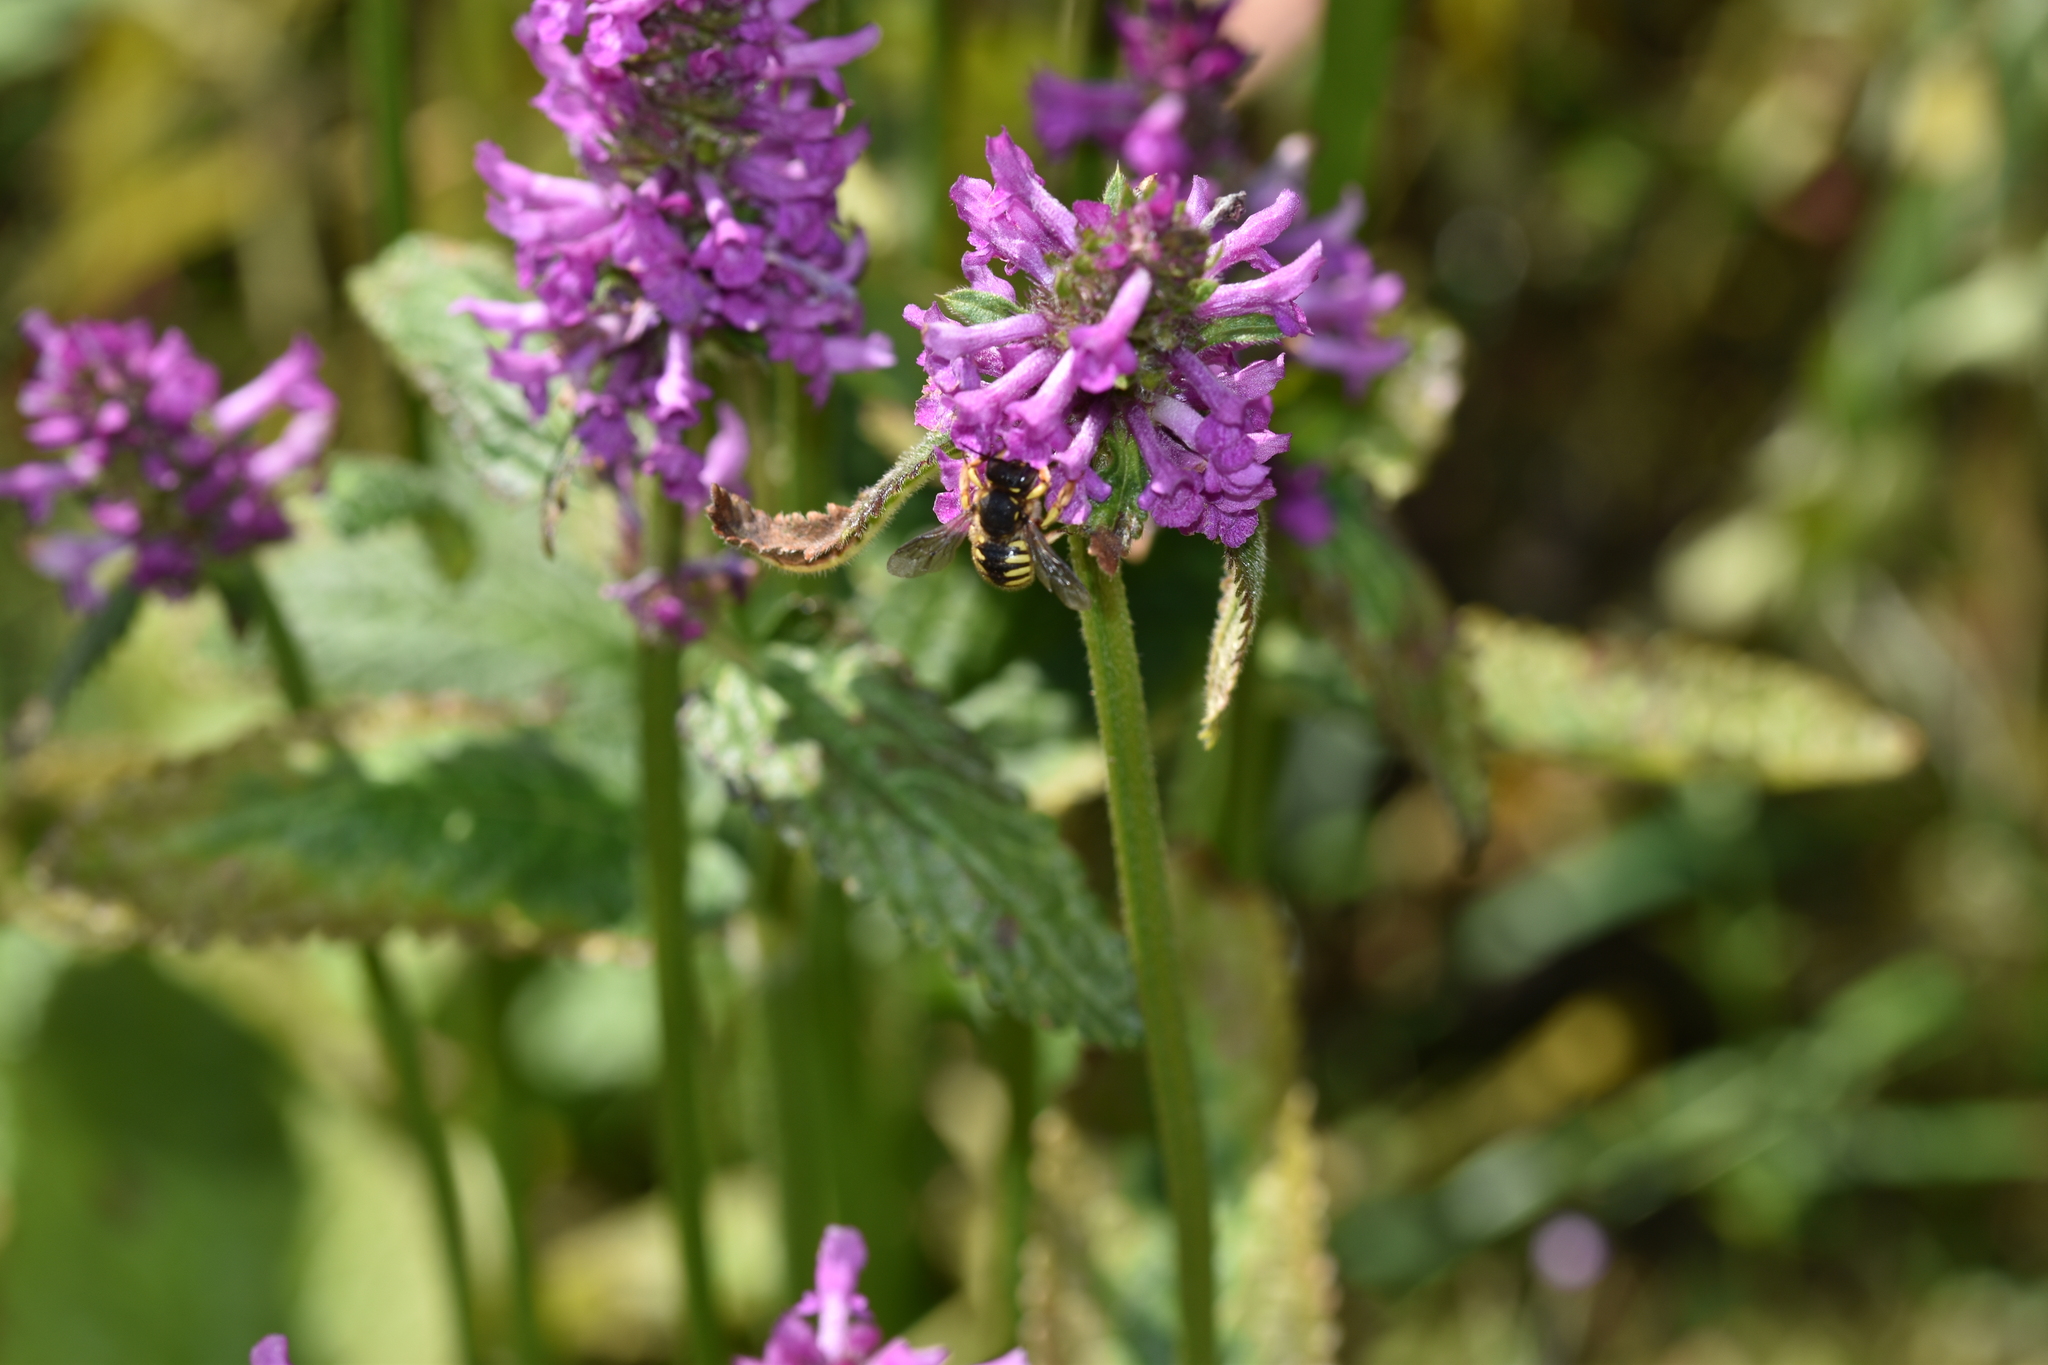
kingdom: Animalia
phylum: Arthropoda
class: Insecta
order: Hymenoptera
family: Megachilidae
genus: Anthidium
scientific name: Anthidium manicatum
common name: Wool carder bee
